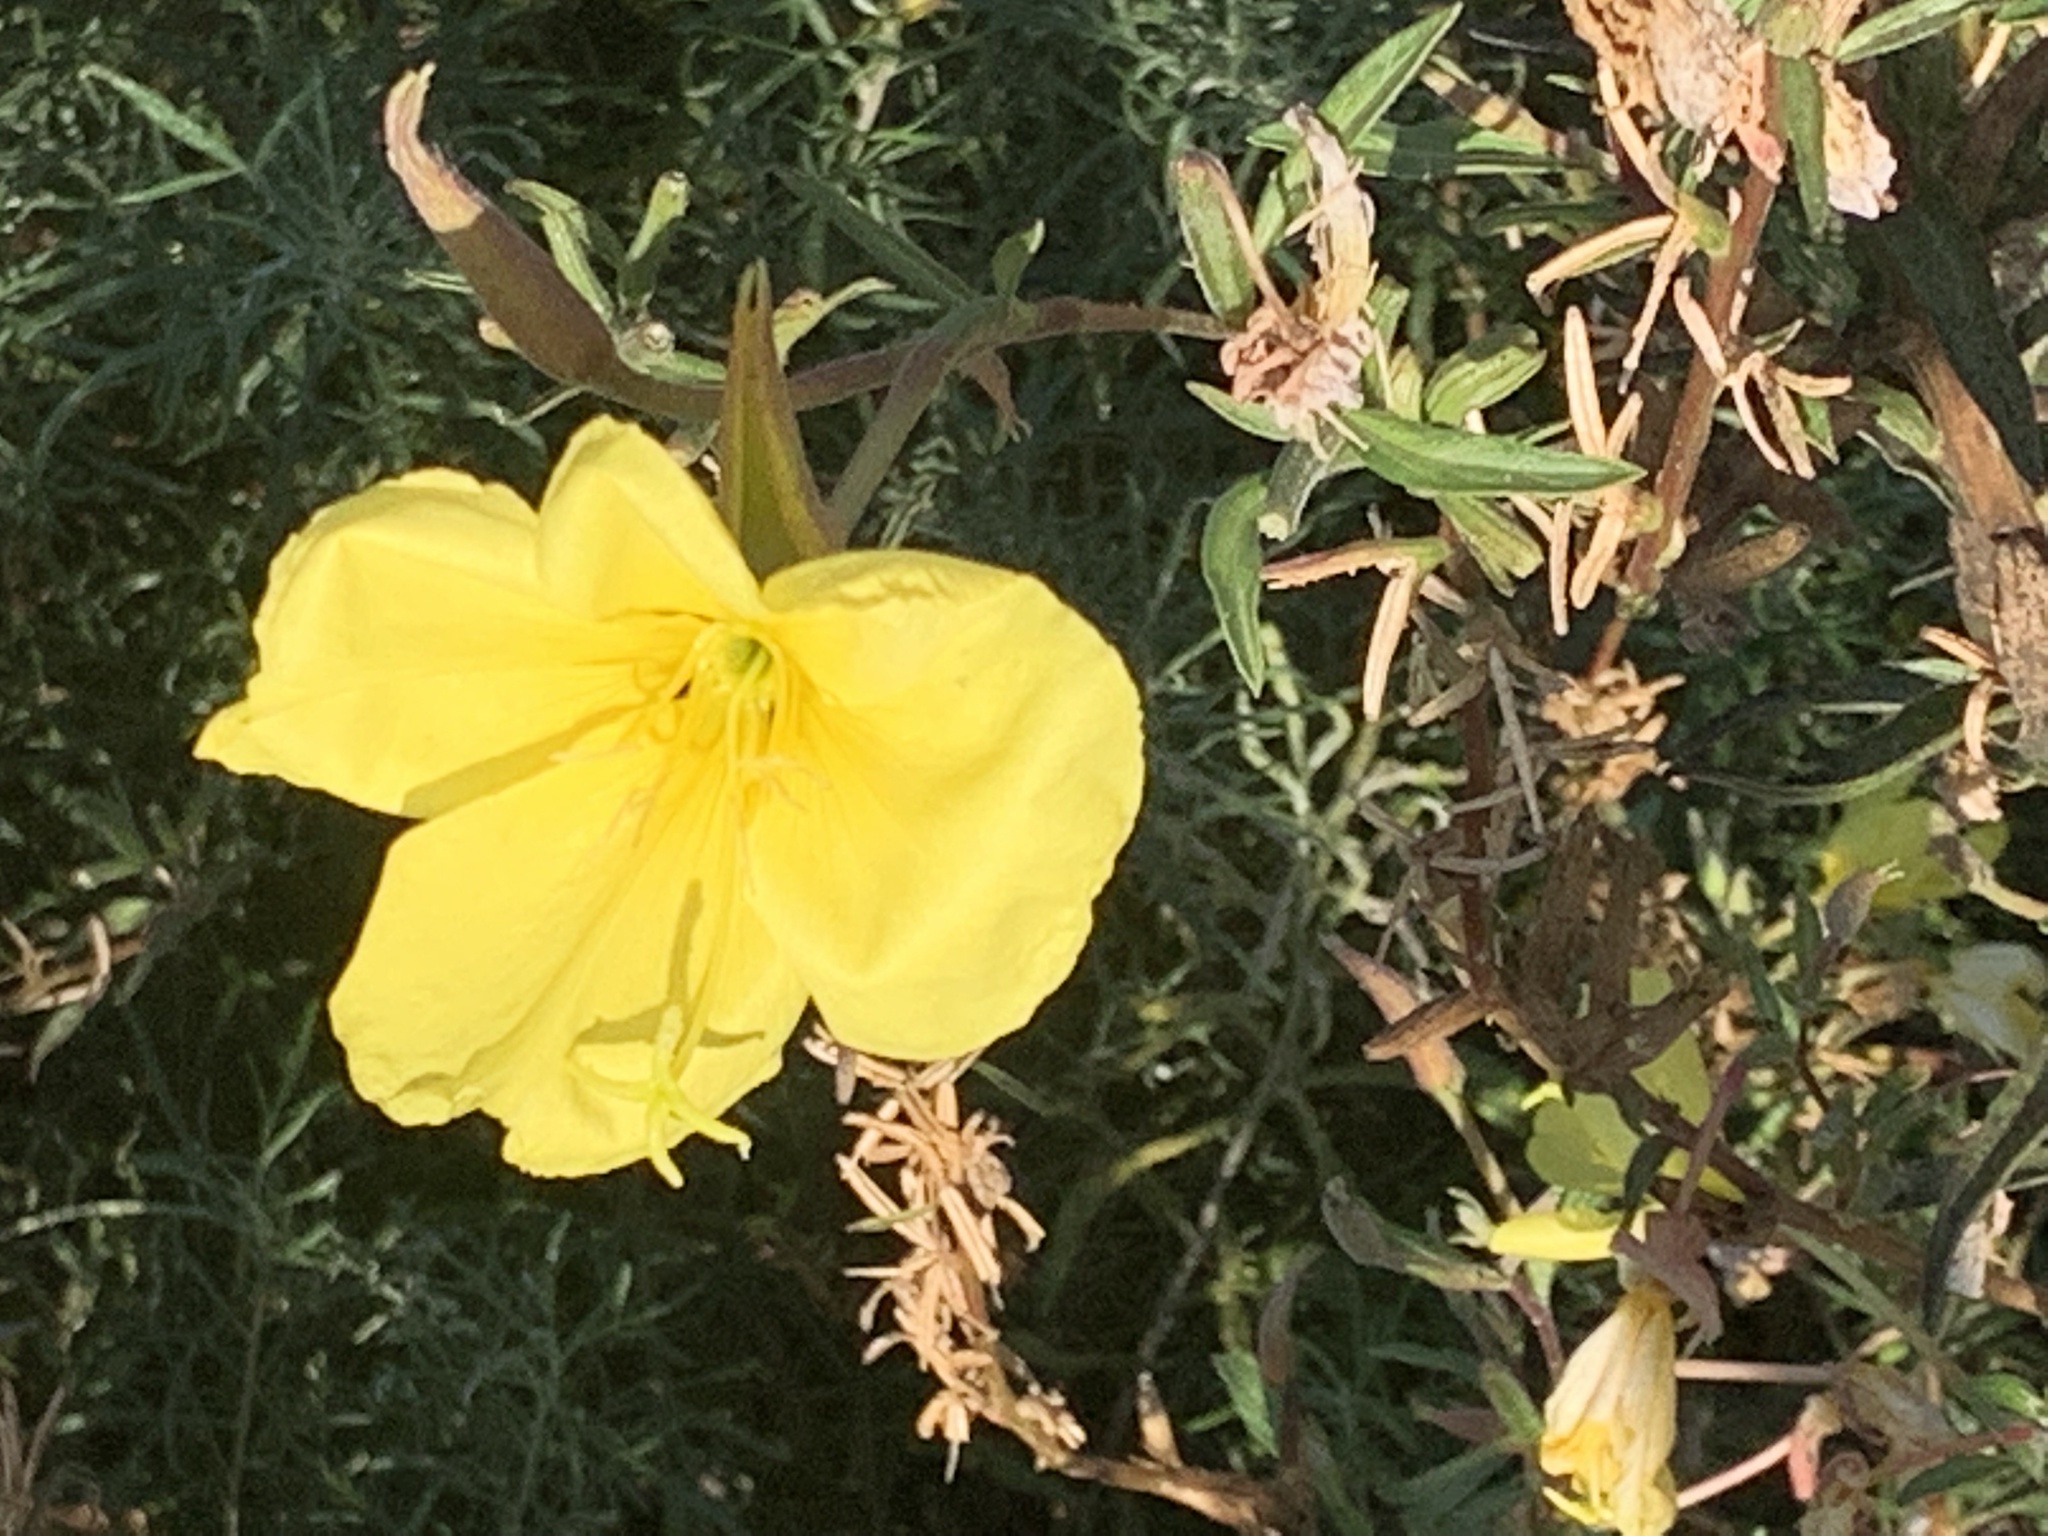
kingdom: Plantae
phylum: Tracheophyta
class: Magnoliopsida
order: Myrtales
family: Onagraceae
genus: Oenothera
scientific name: Oenothera elata
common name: Hooker's evening-primrose
